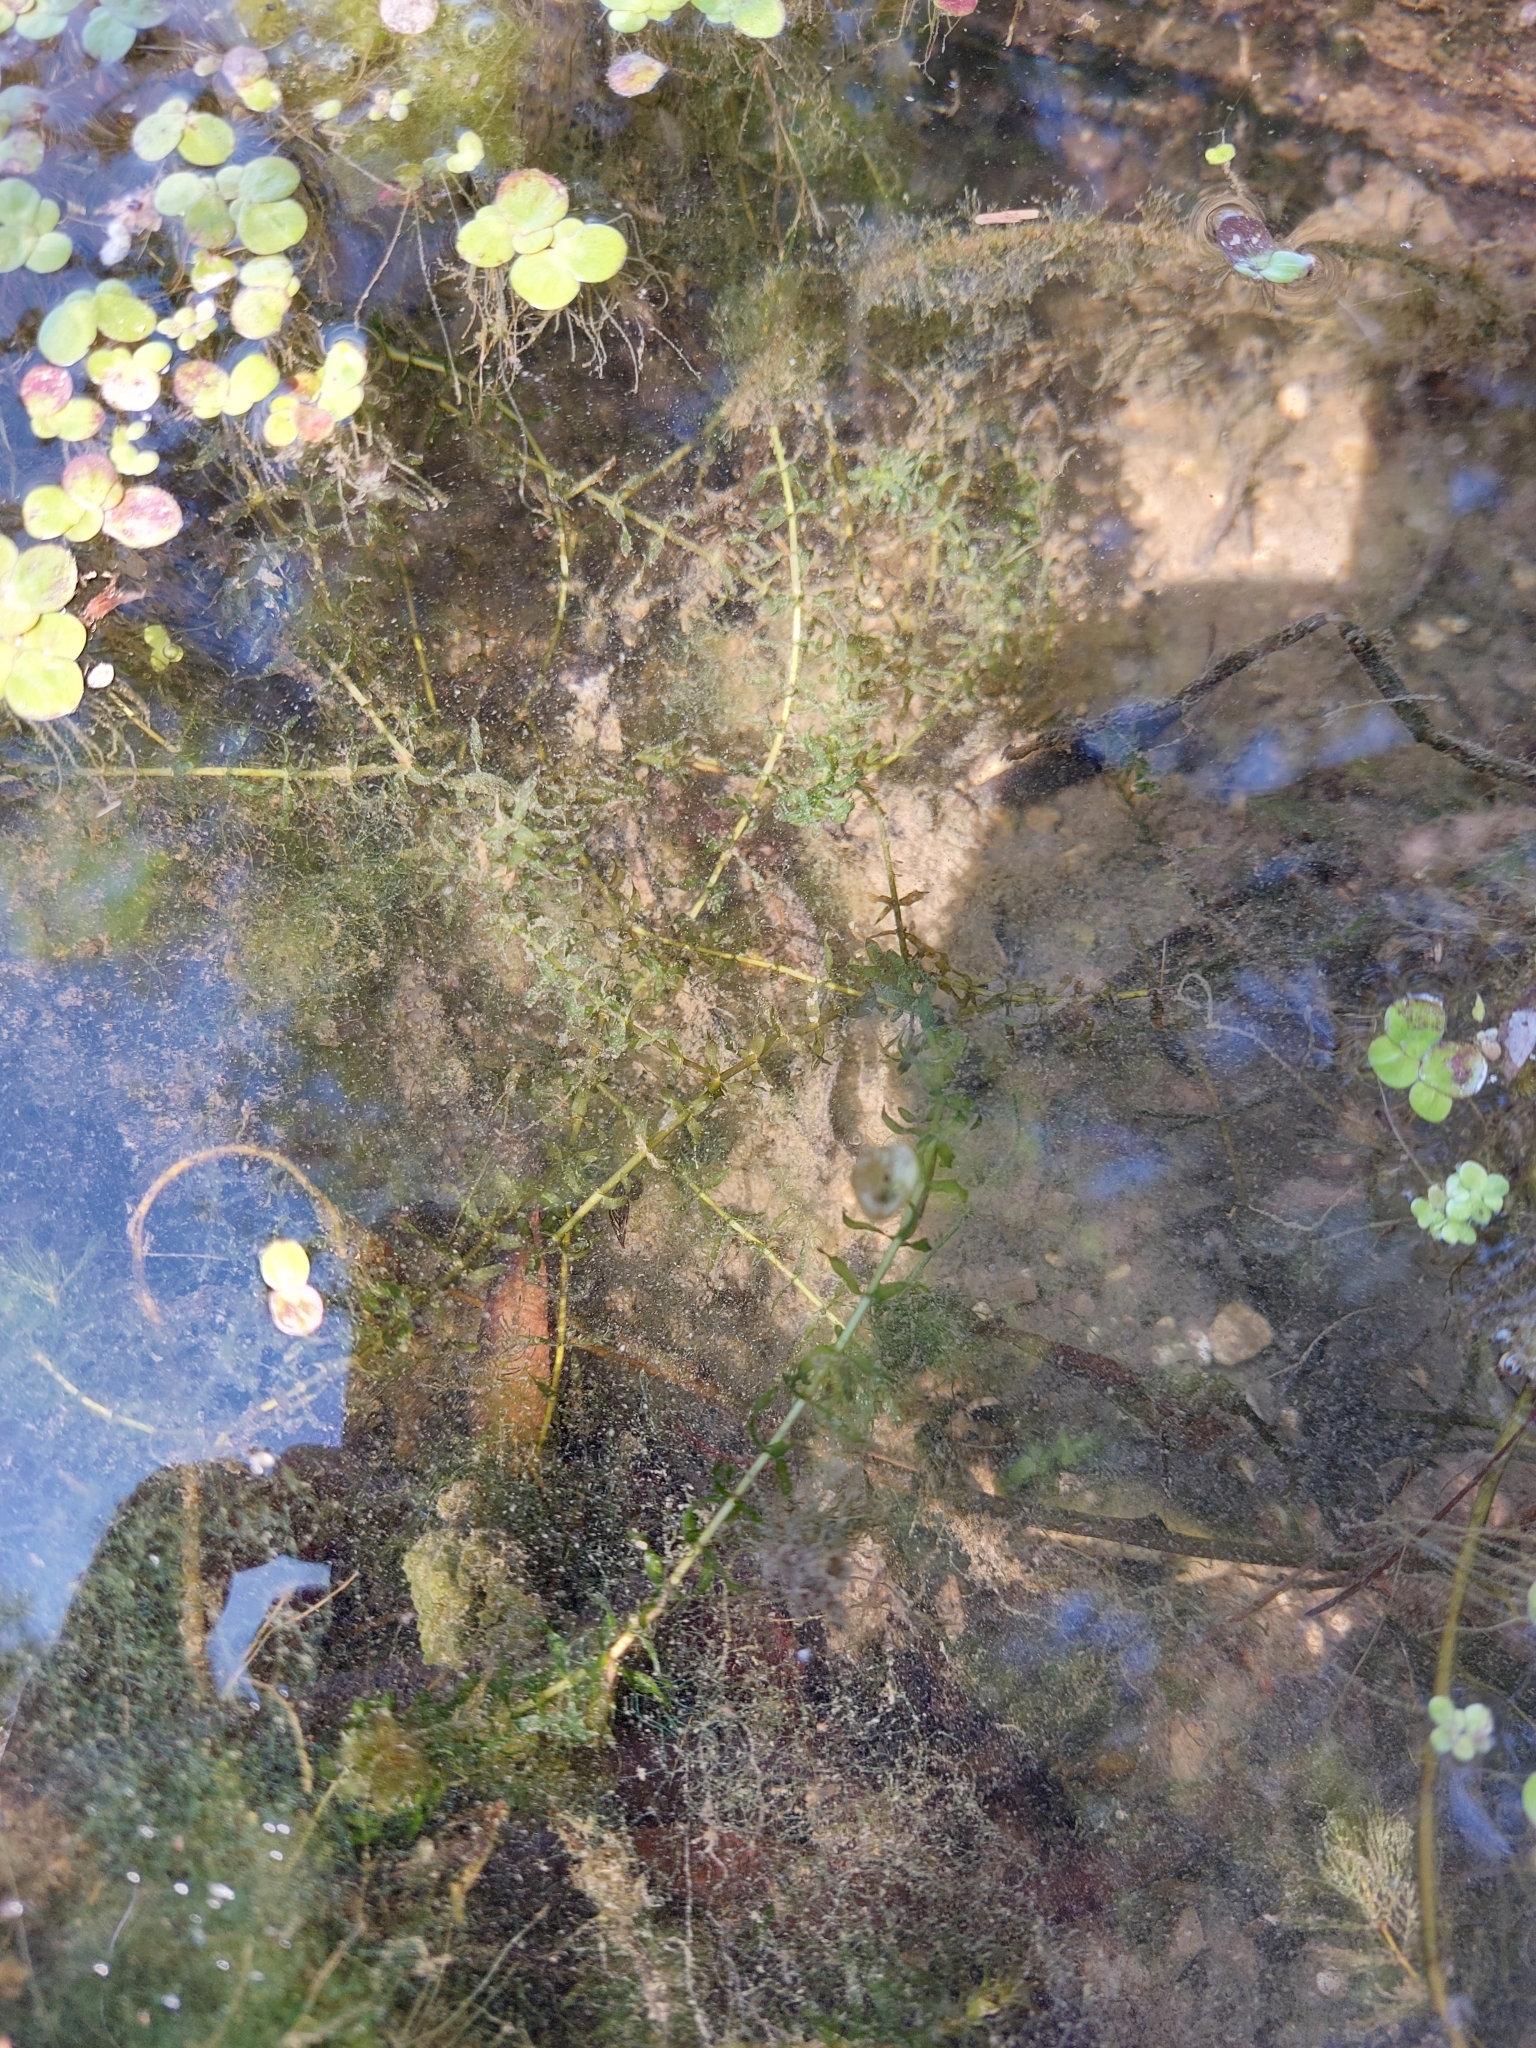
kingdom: Plantae
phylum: Tracheophyta
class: Liliopsida
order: Alismatales
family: Hydrocharitaceae
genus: Elodea
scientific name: Elodea nuttallii
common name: Nuttall's waterweed
